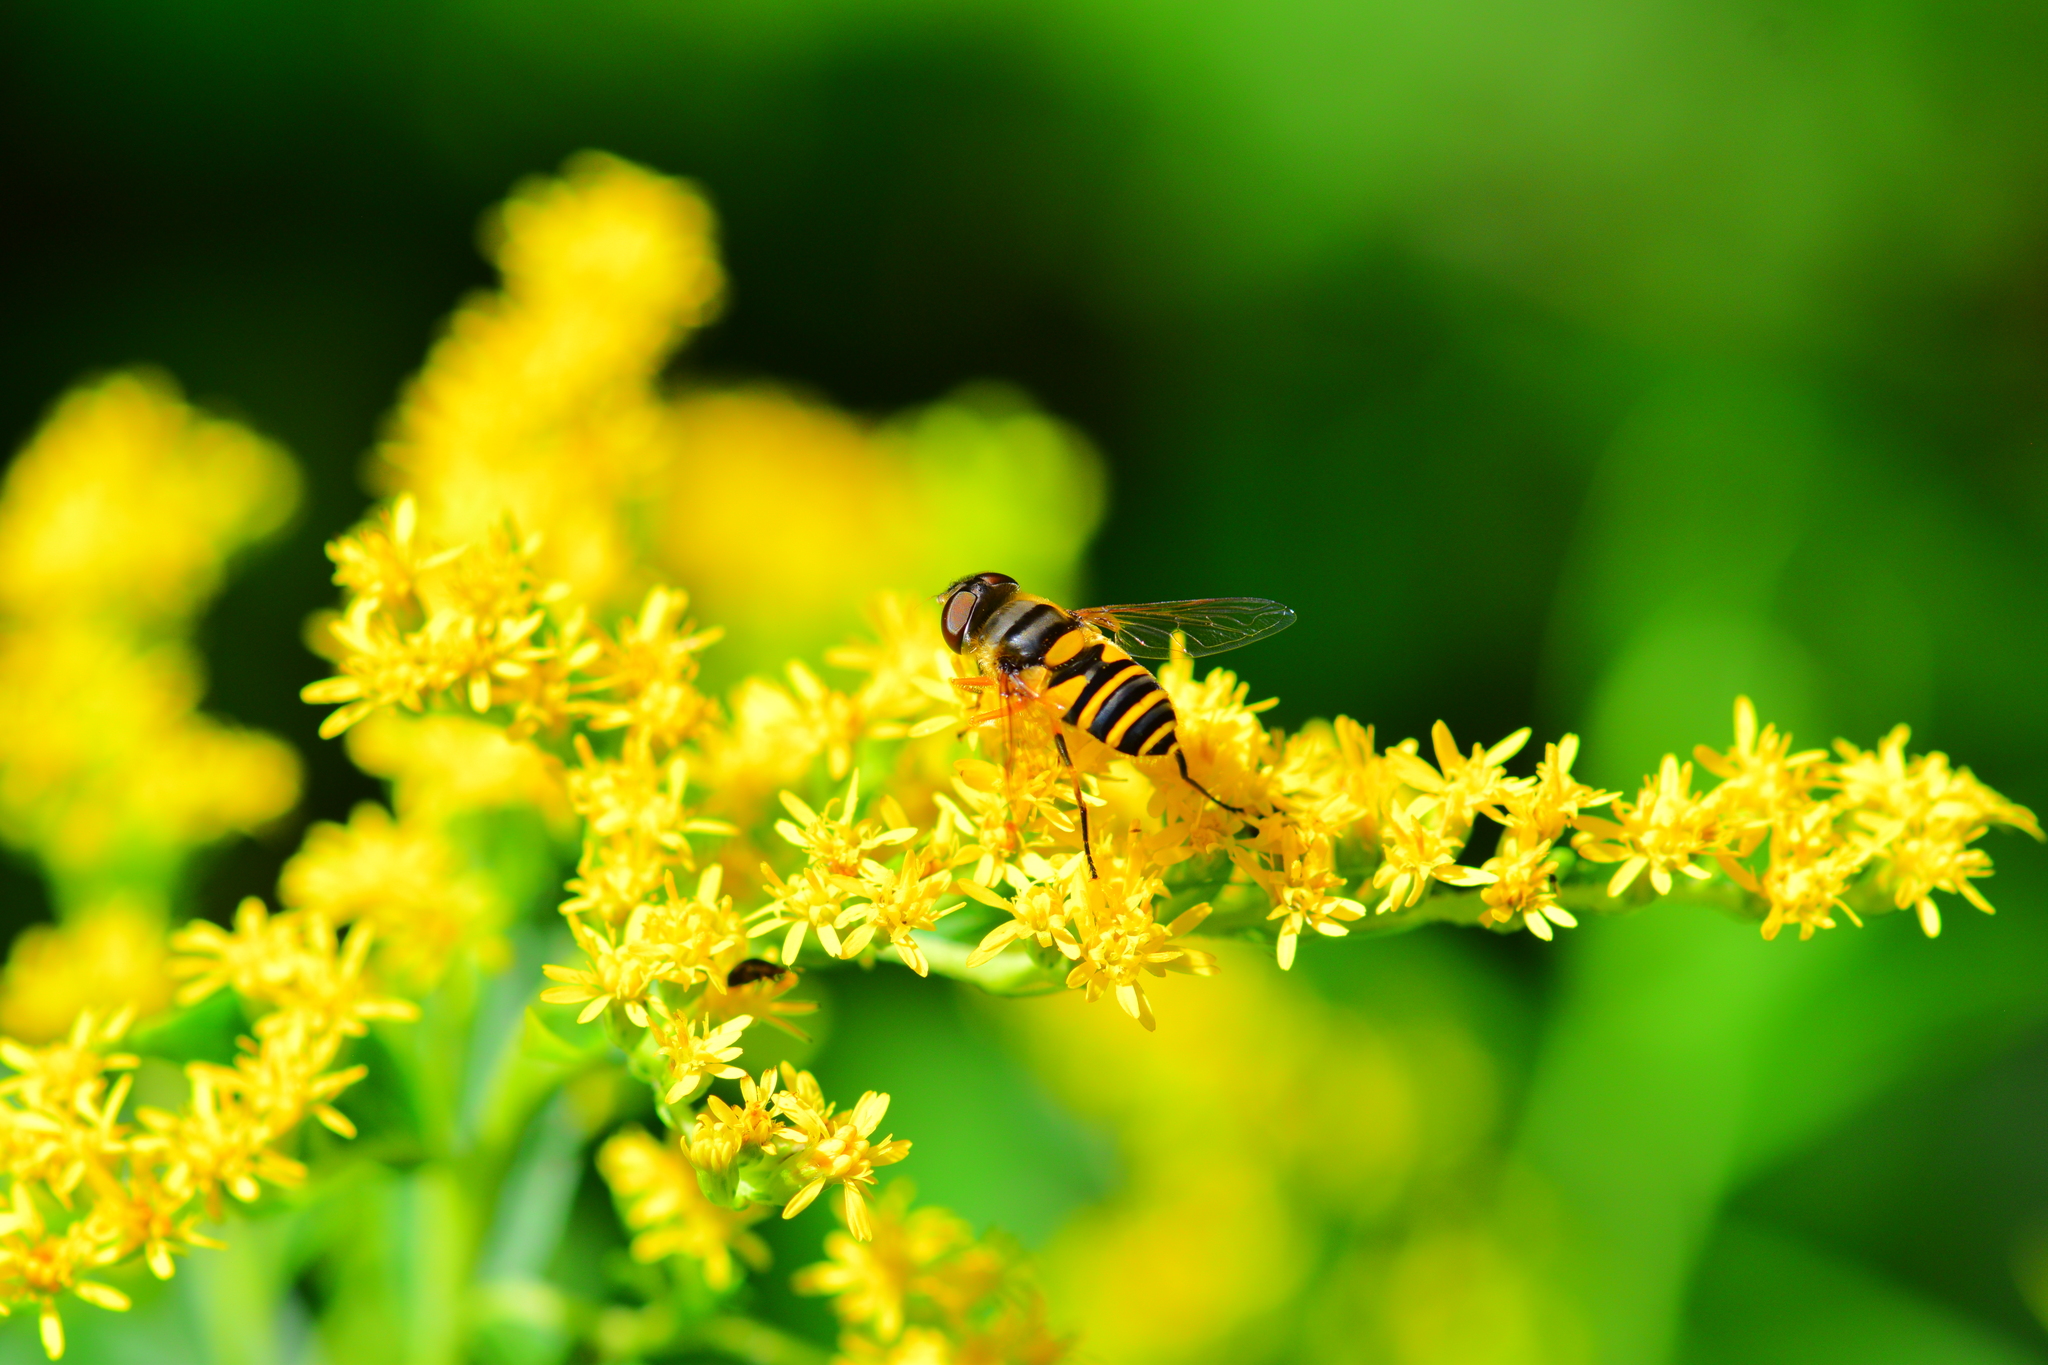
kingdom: Animalia
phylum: Arthropoda
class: Insecta
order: Diptera
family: Syrphidae
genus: Eristalis
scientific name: Eristalis transversa
